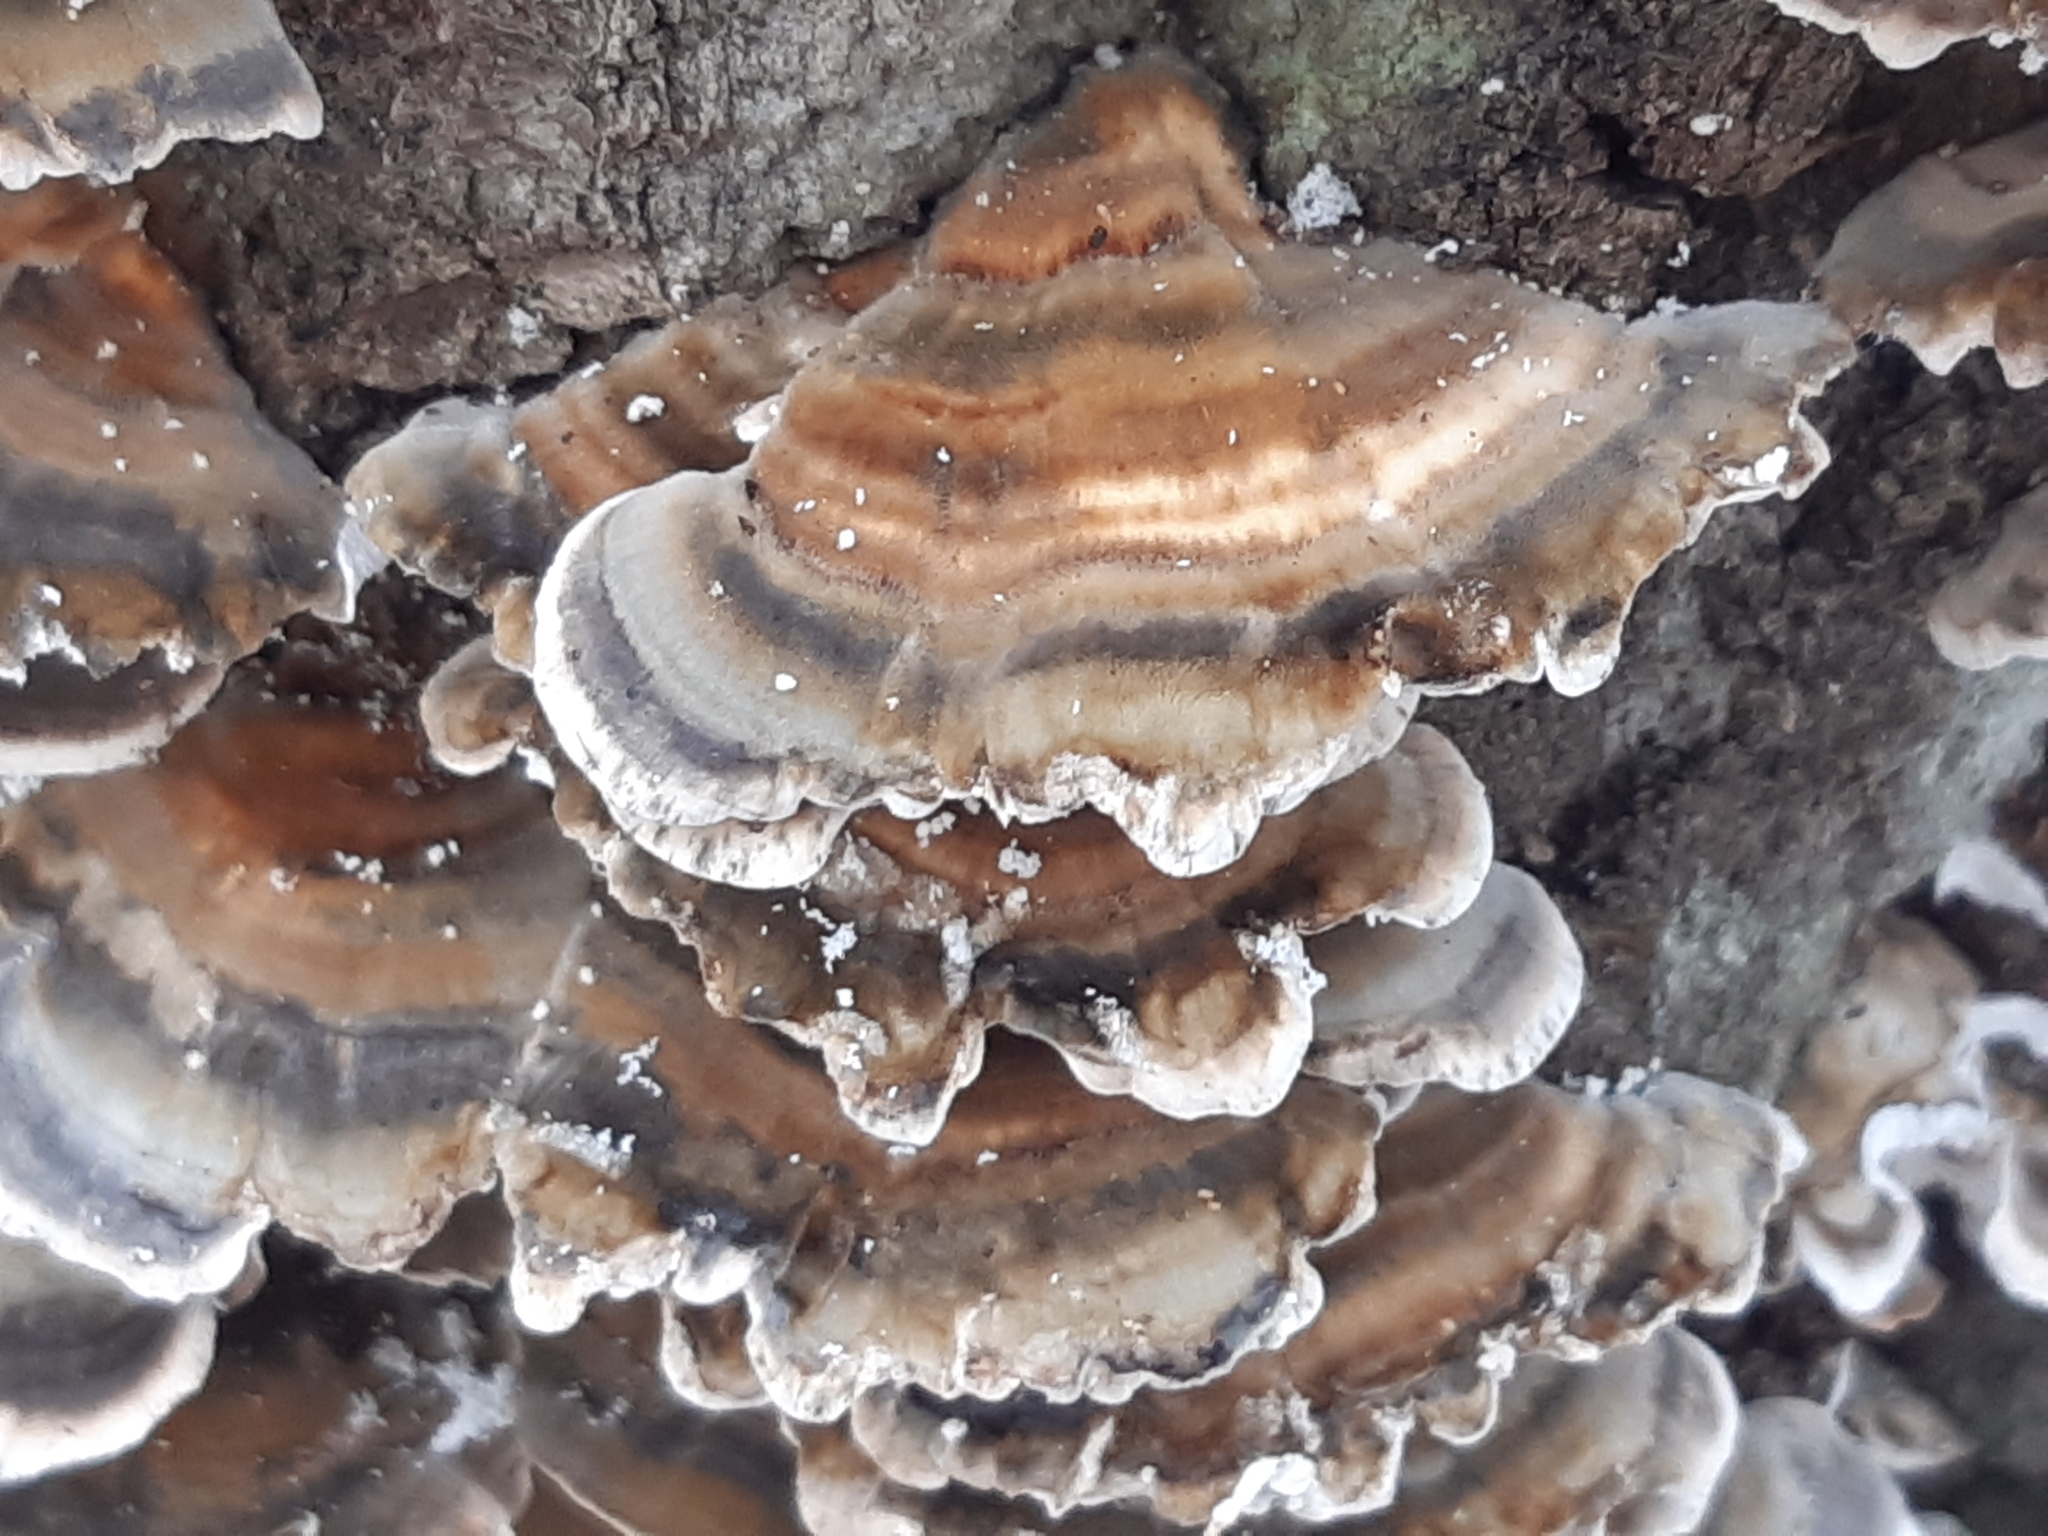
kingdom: Fungi
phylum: Basidiomycota
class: Agaricomycetes
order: Polyporales
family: Polyporaceae
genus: Trametes
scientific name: Trametes versicolor
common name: Turkeytail
